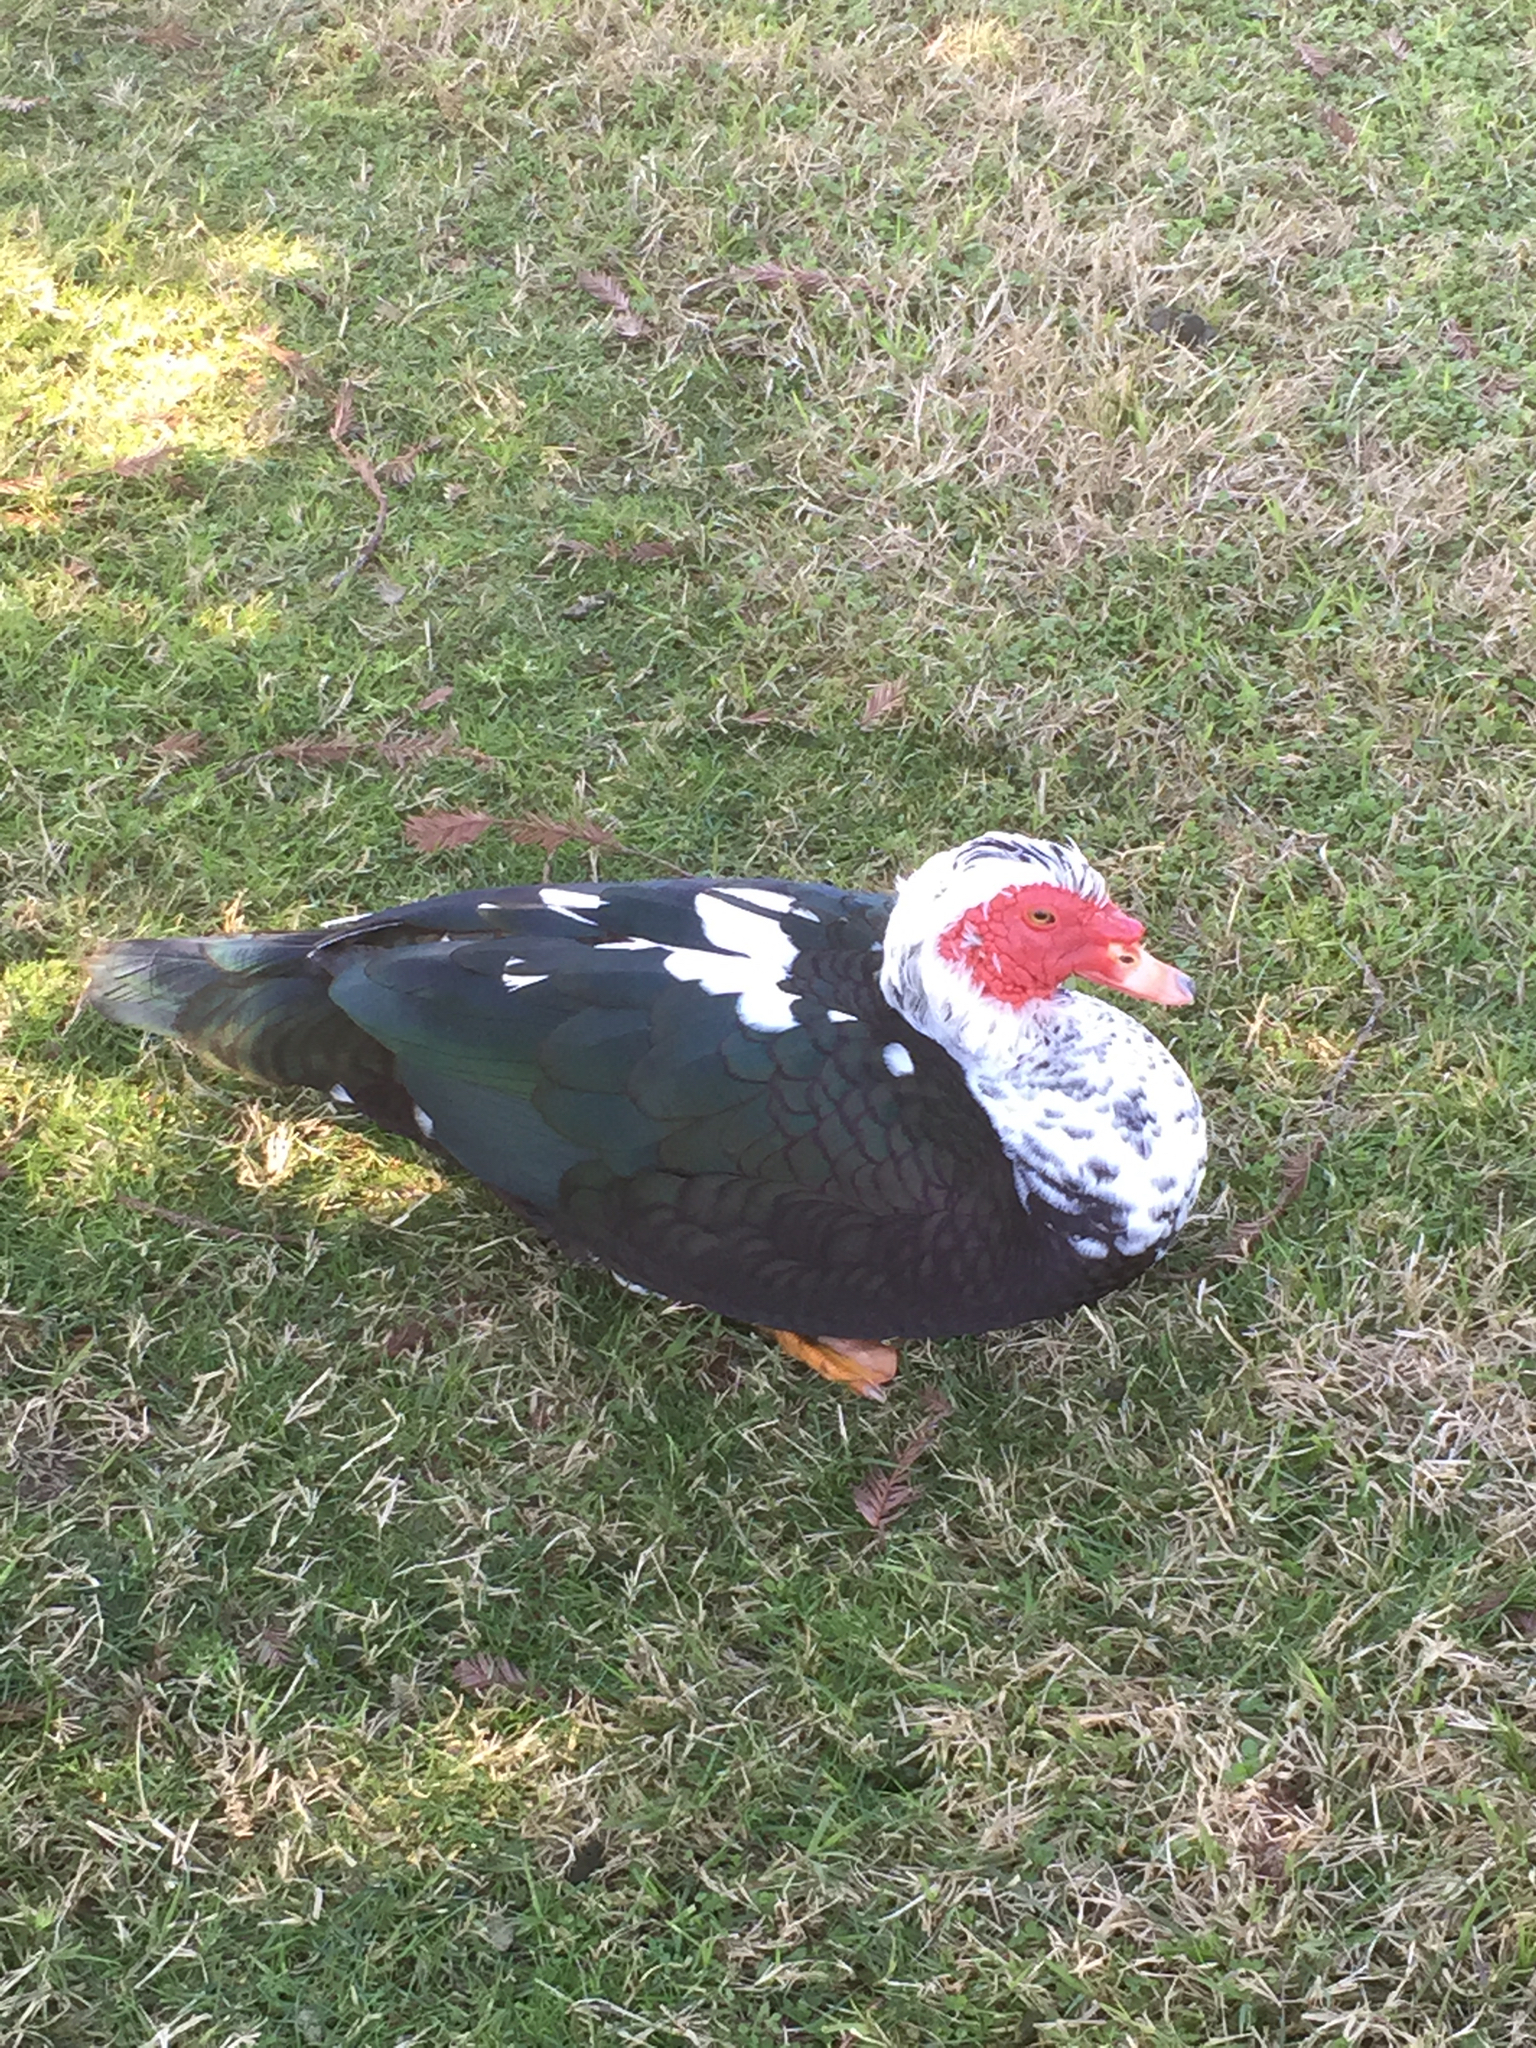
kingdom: Animalia
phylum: Chordata
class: Aves
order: Anseriformes
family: Anatidae
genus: Cairina
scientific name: Cairina moschata
